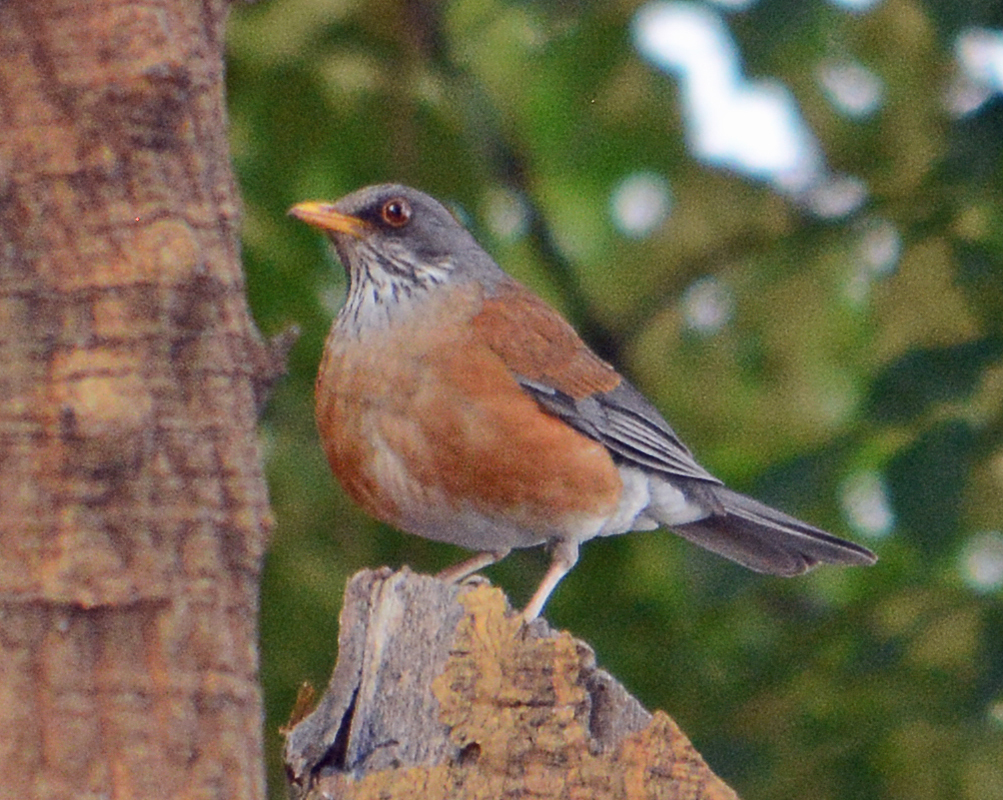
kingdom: Animalia
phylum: Chordata
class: Aves
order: Passeriformes
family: Turdidae
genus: Turdus
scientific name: Turdus rufopalliatus
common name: Rufous-backed robin
